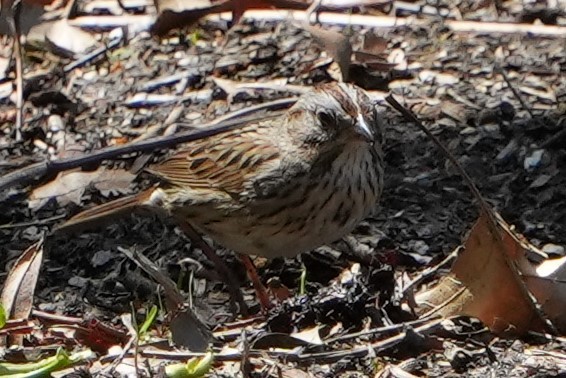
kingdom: Animalia
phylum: Chordata
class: Aves
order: Passeriformes
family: Passerellidae
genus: Melospiza
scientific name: Melospiza lincolnii
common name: Lincoln's sparrow
